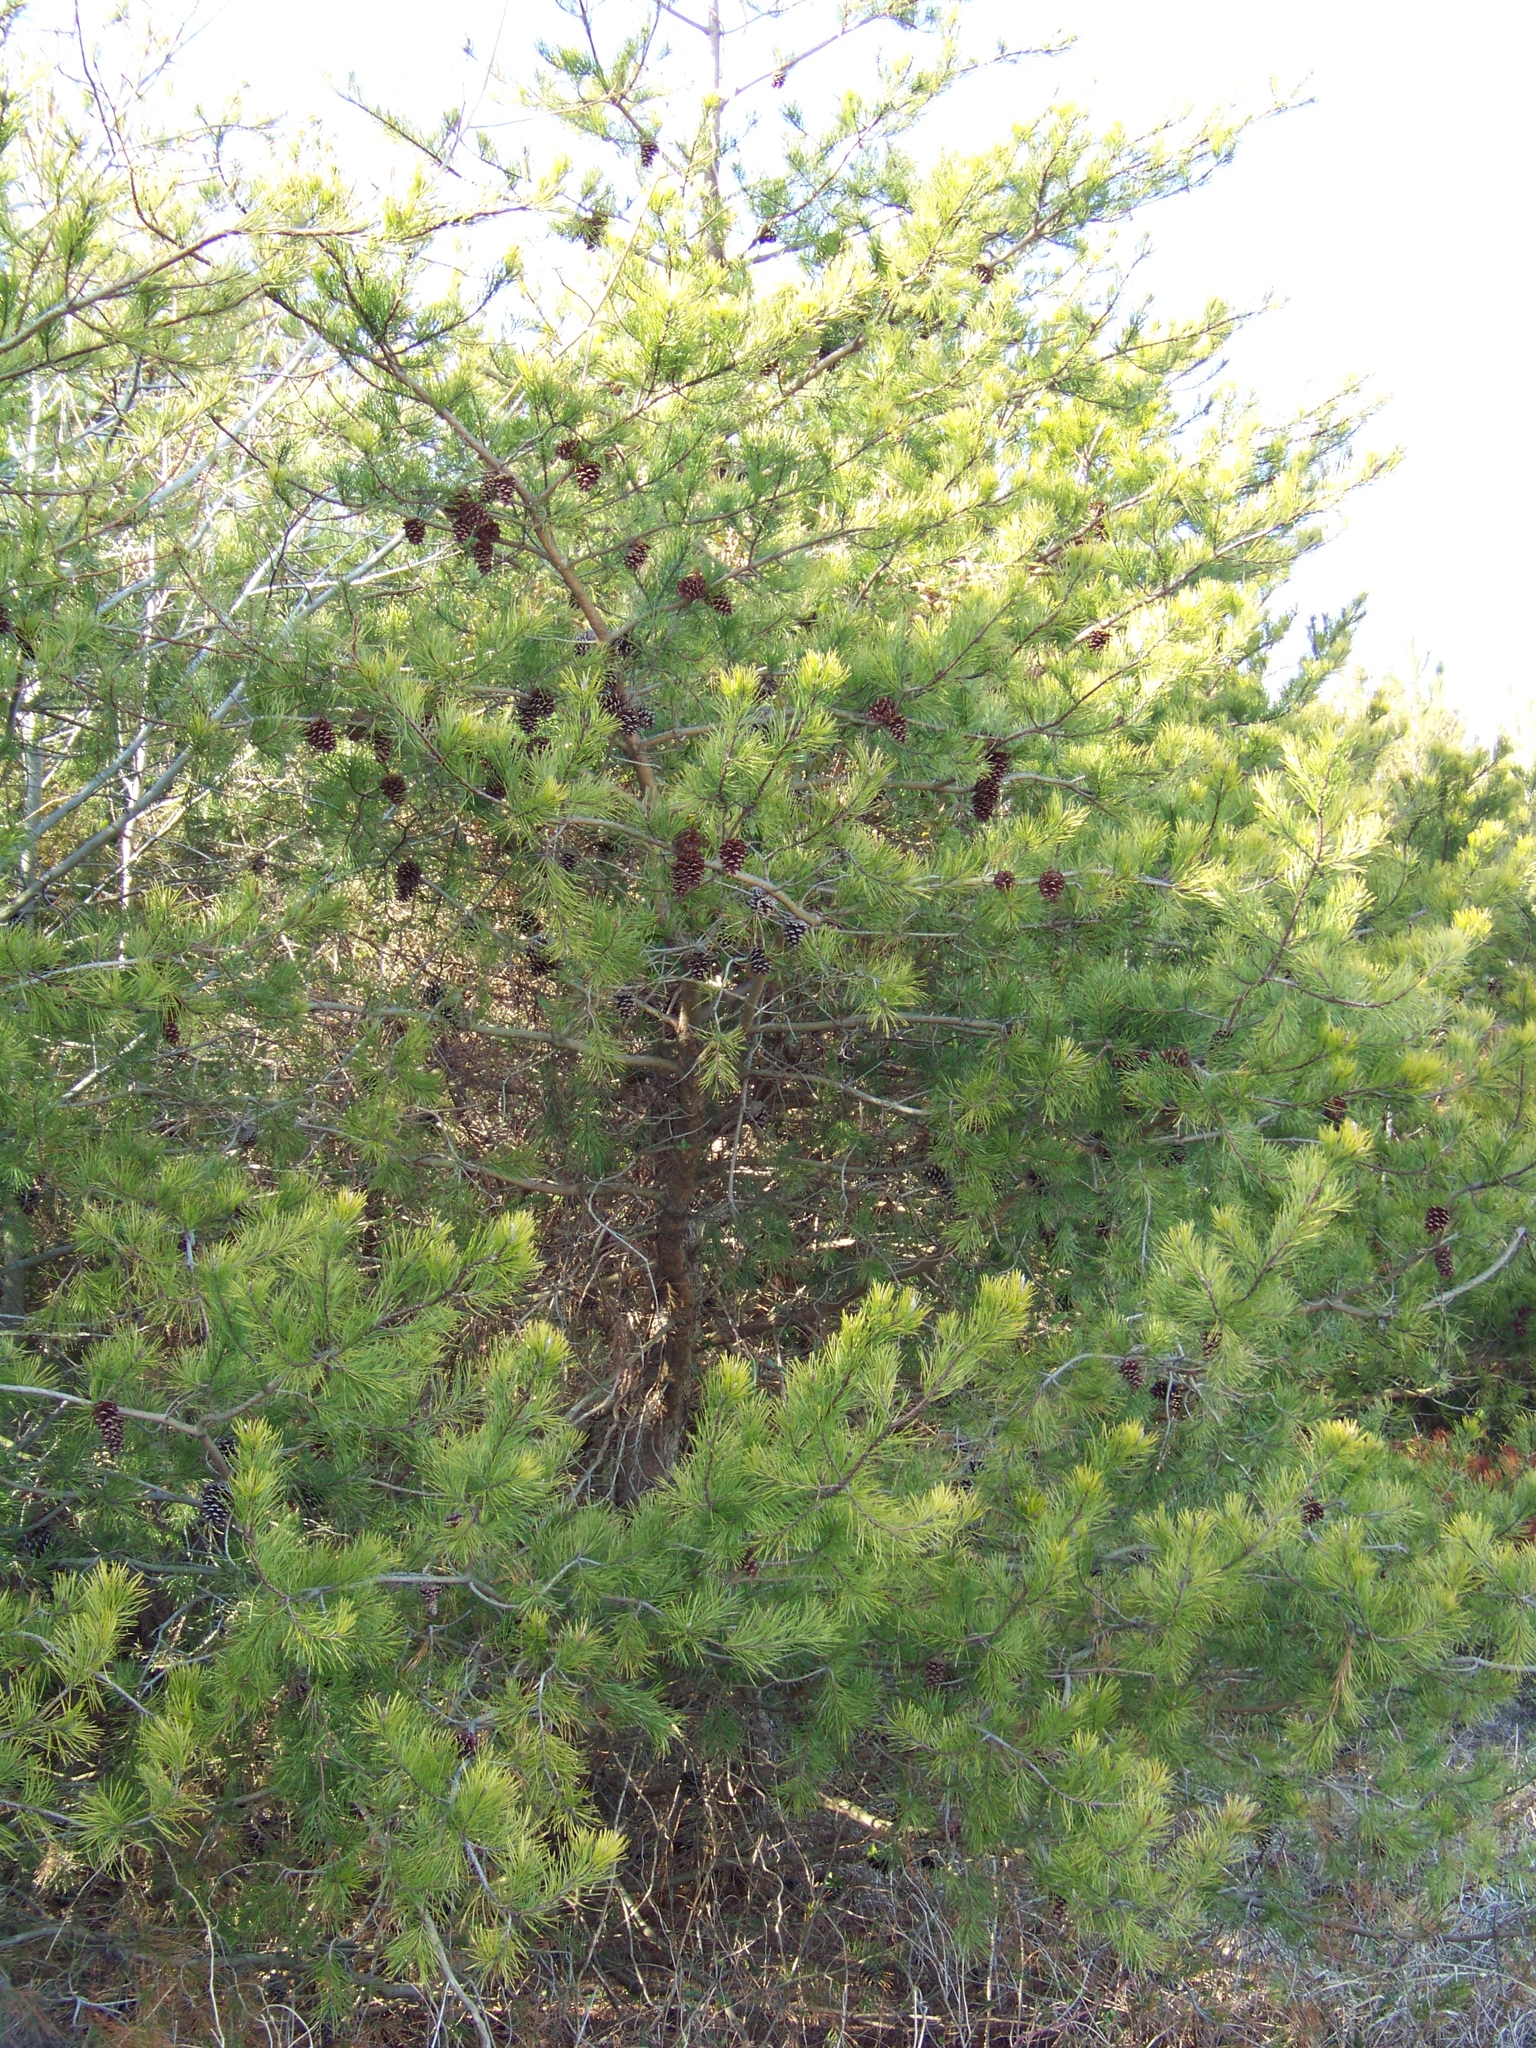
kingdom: Plantae
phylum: Tracheophyta
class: Pinopsida
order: Pinales
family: Pinaceae
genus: Pinus
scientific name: Pinus virginiana
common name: Scrub pine
